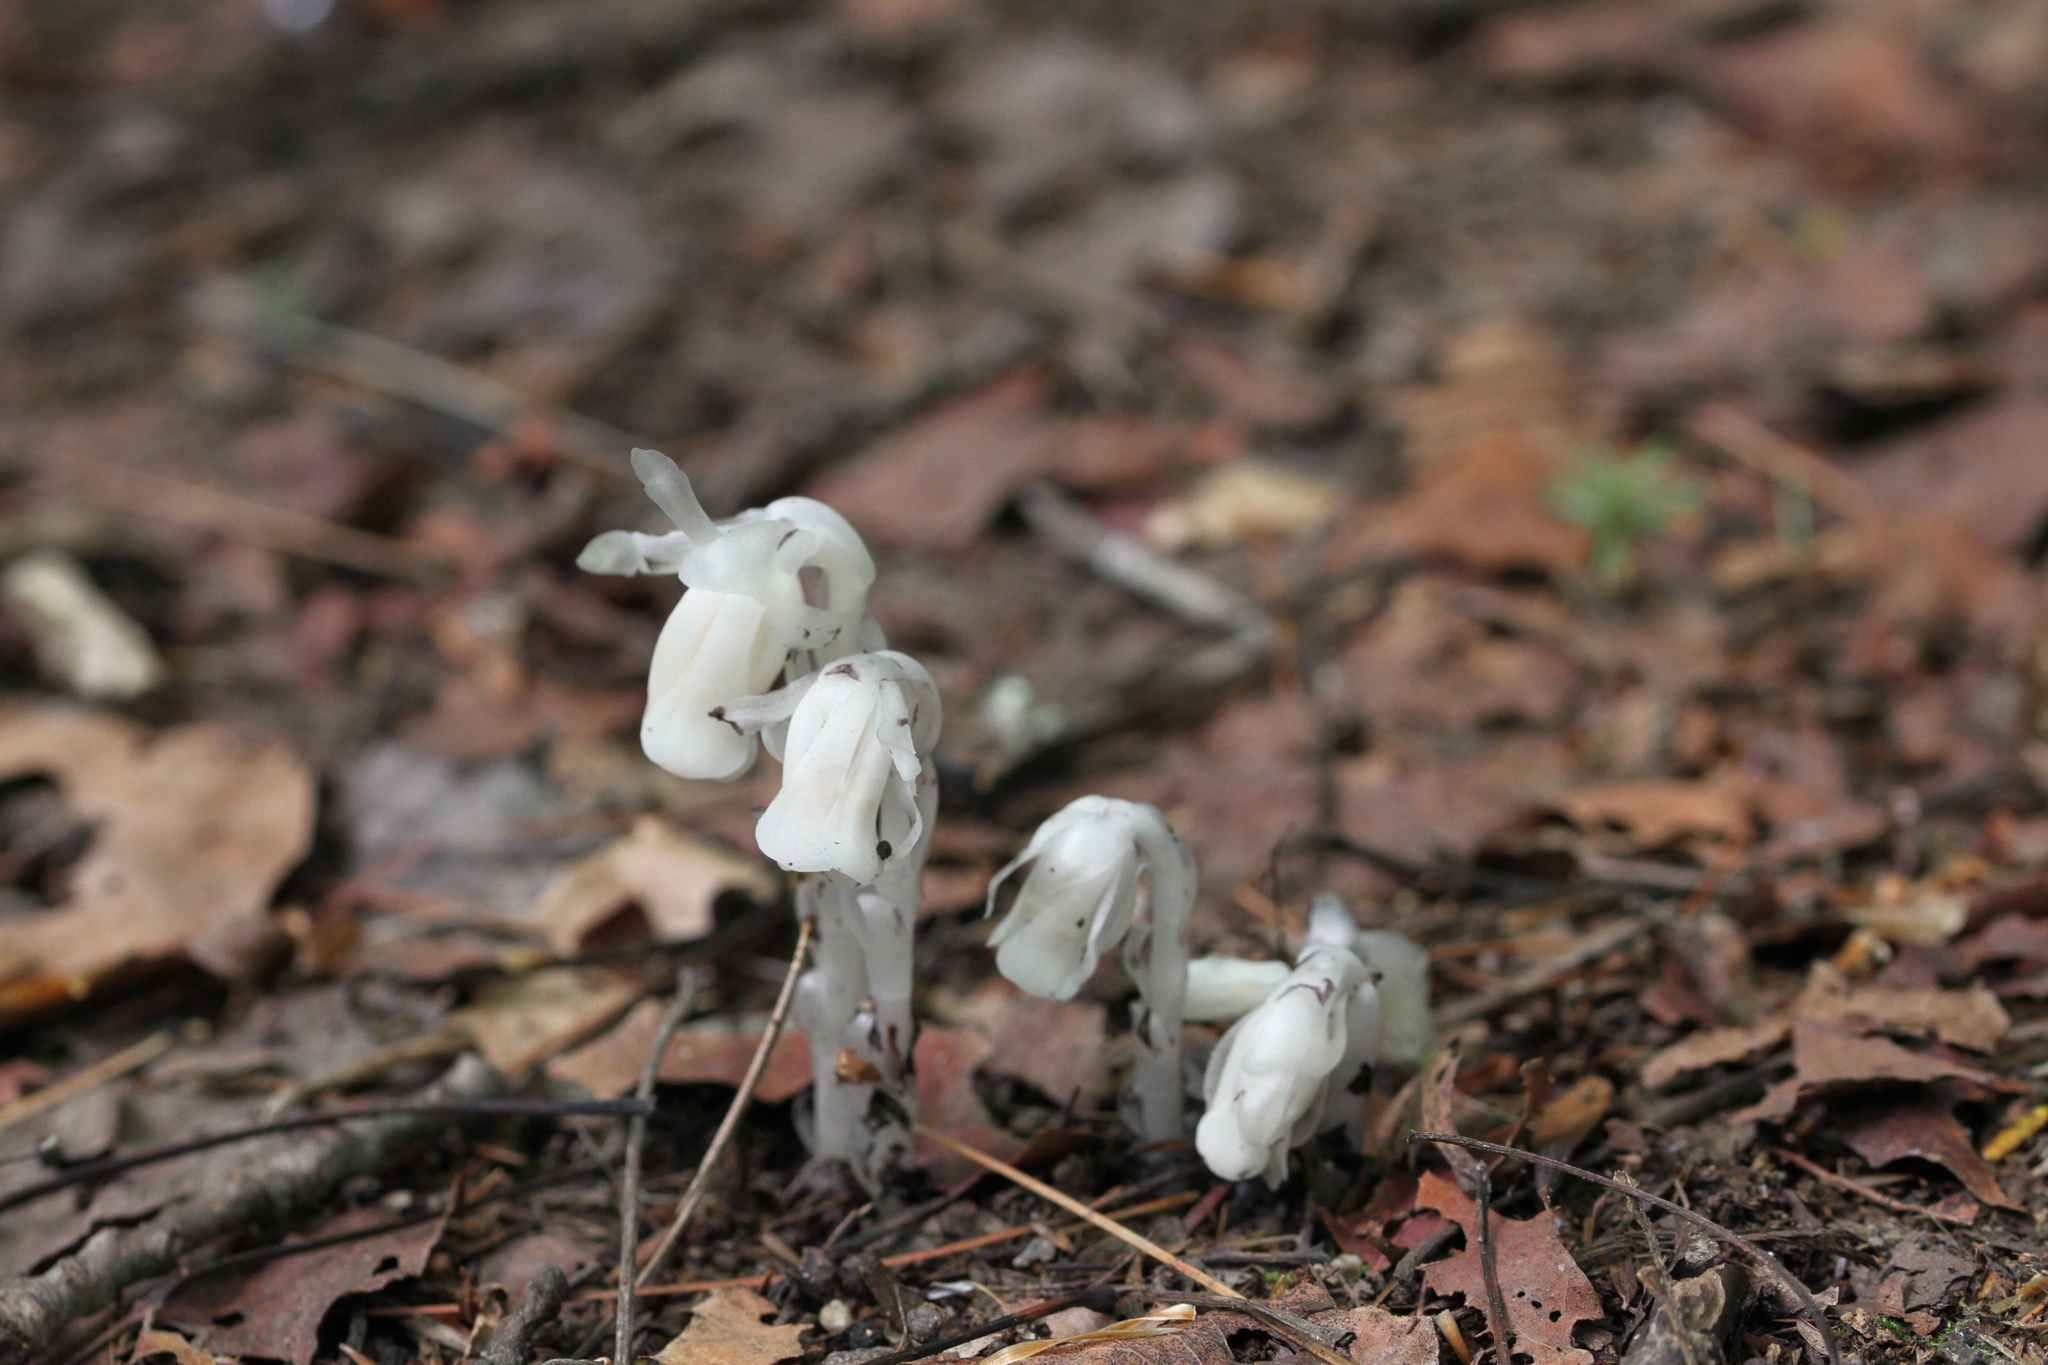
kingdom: Plantae
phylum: Tracheophyta
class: Magnoliopsida
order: Ericales
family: Ericaceae
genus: Monotropa
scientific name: Monotropa uniflora
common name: Convulsion root
